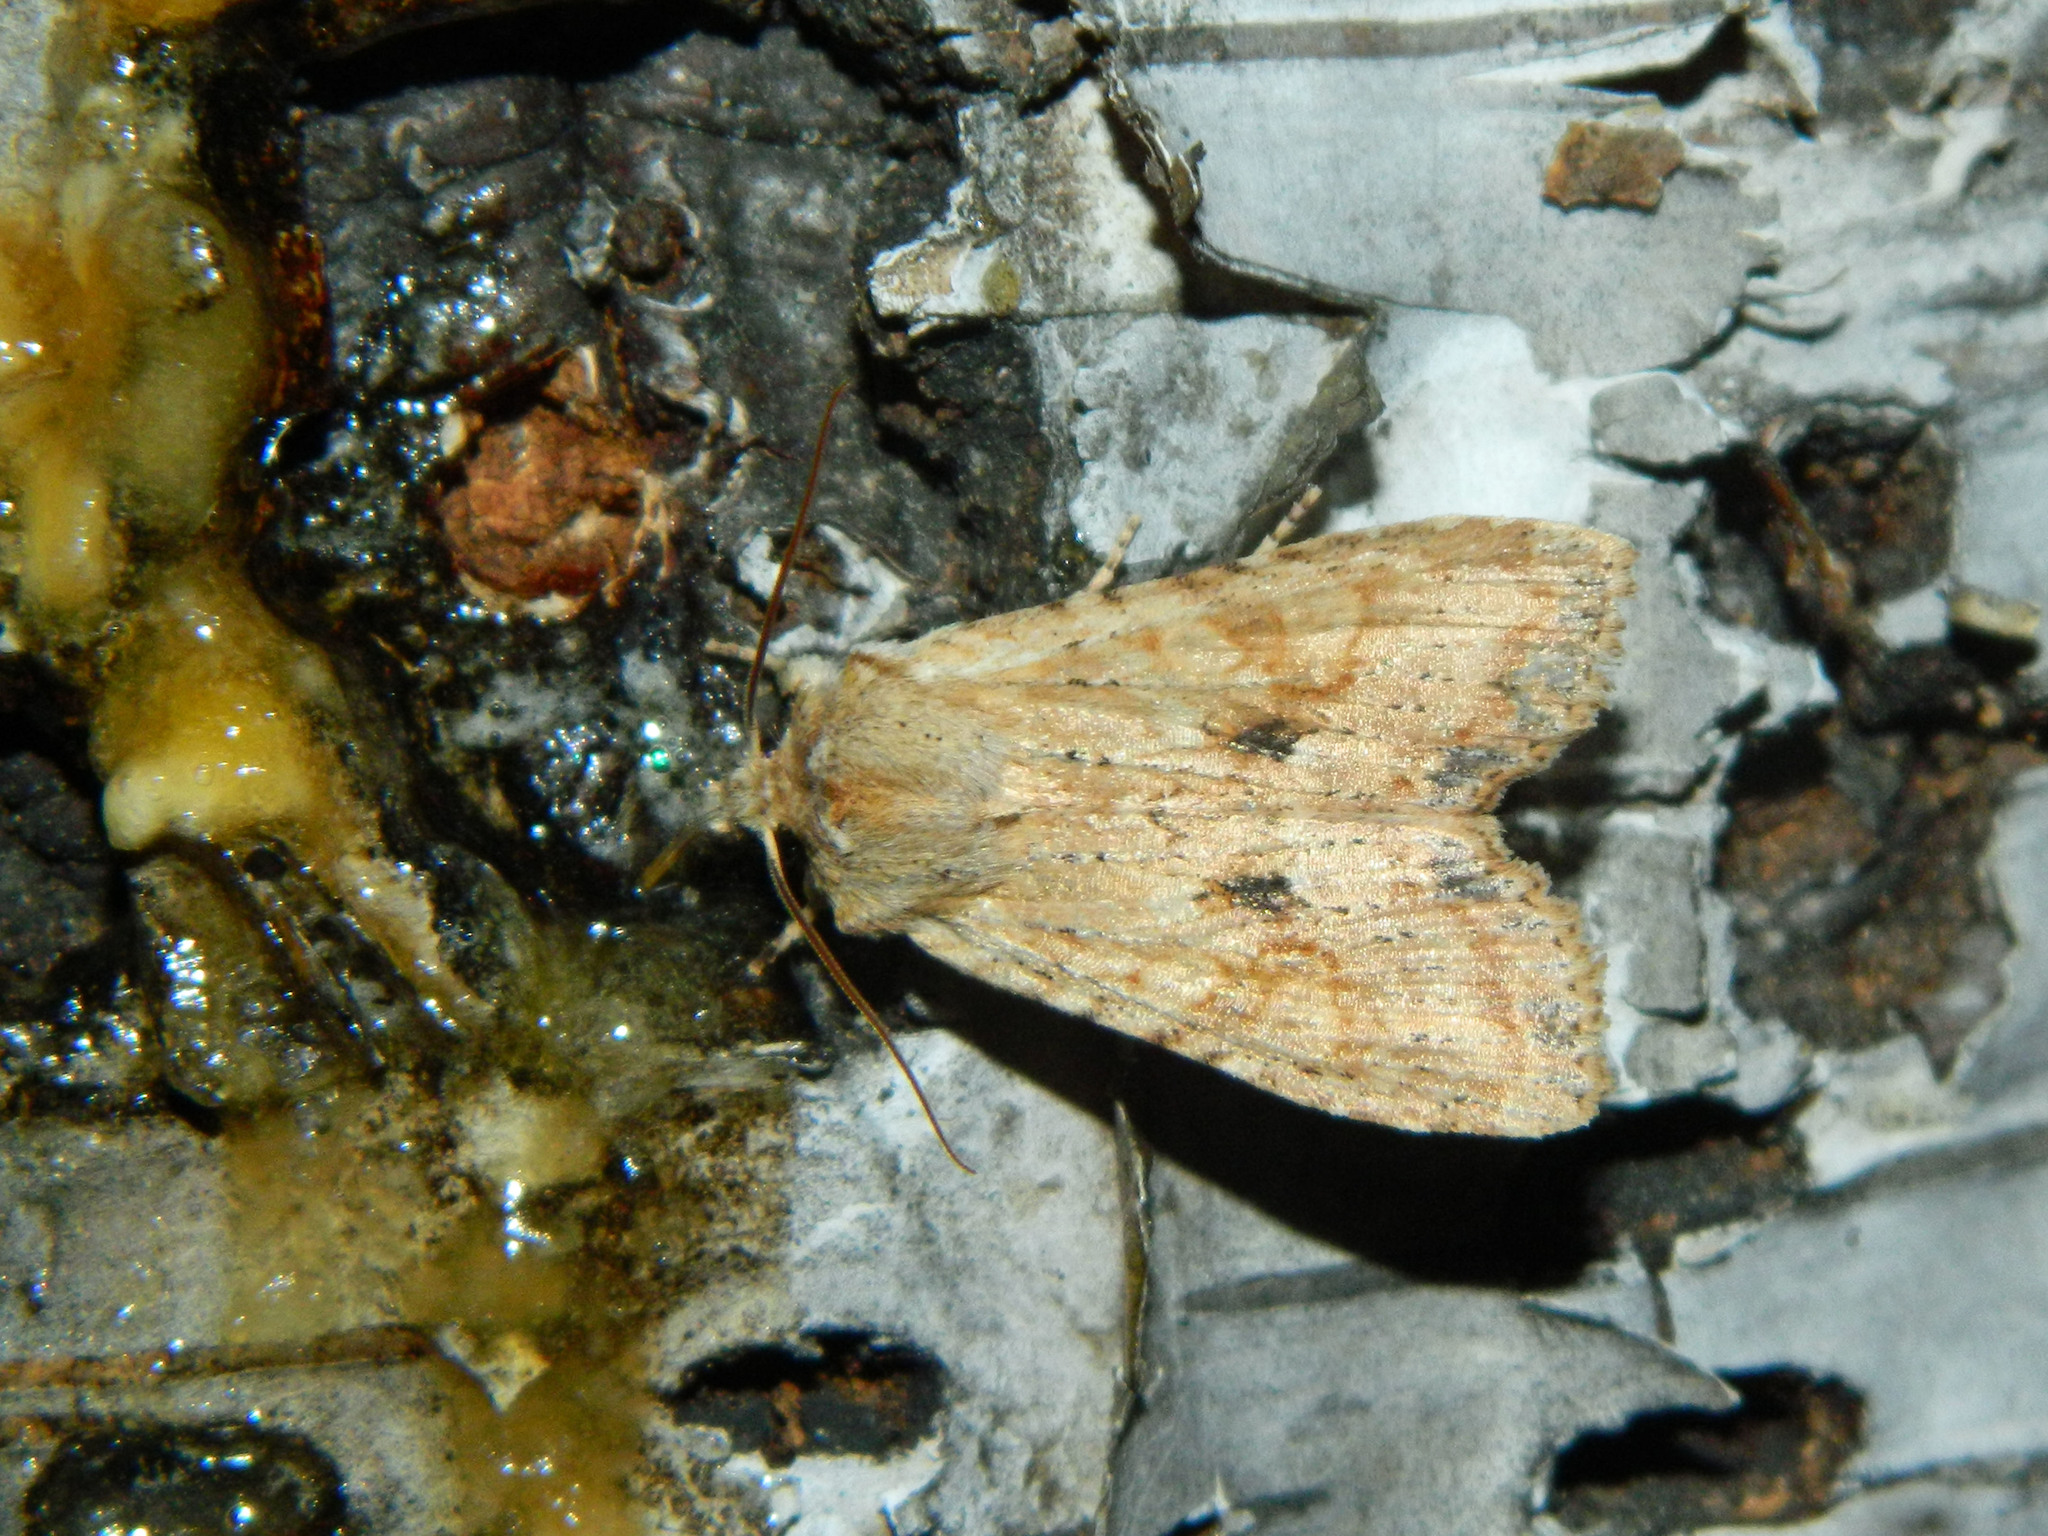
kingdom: Animalia
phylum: Arthropoda
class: Insecta
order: Lepidoptera
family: Noctuidae
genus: Lithophane
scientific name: Lithophane innominata
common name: Nameless pinion moth
